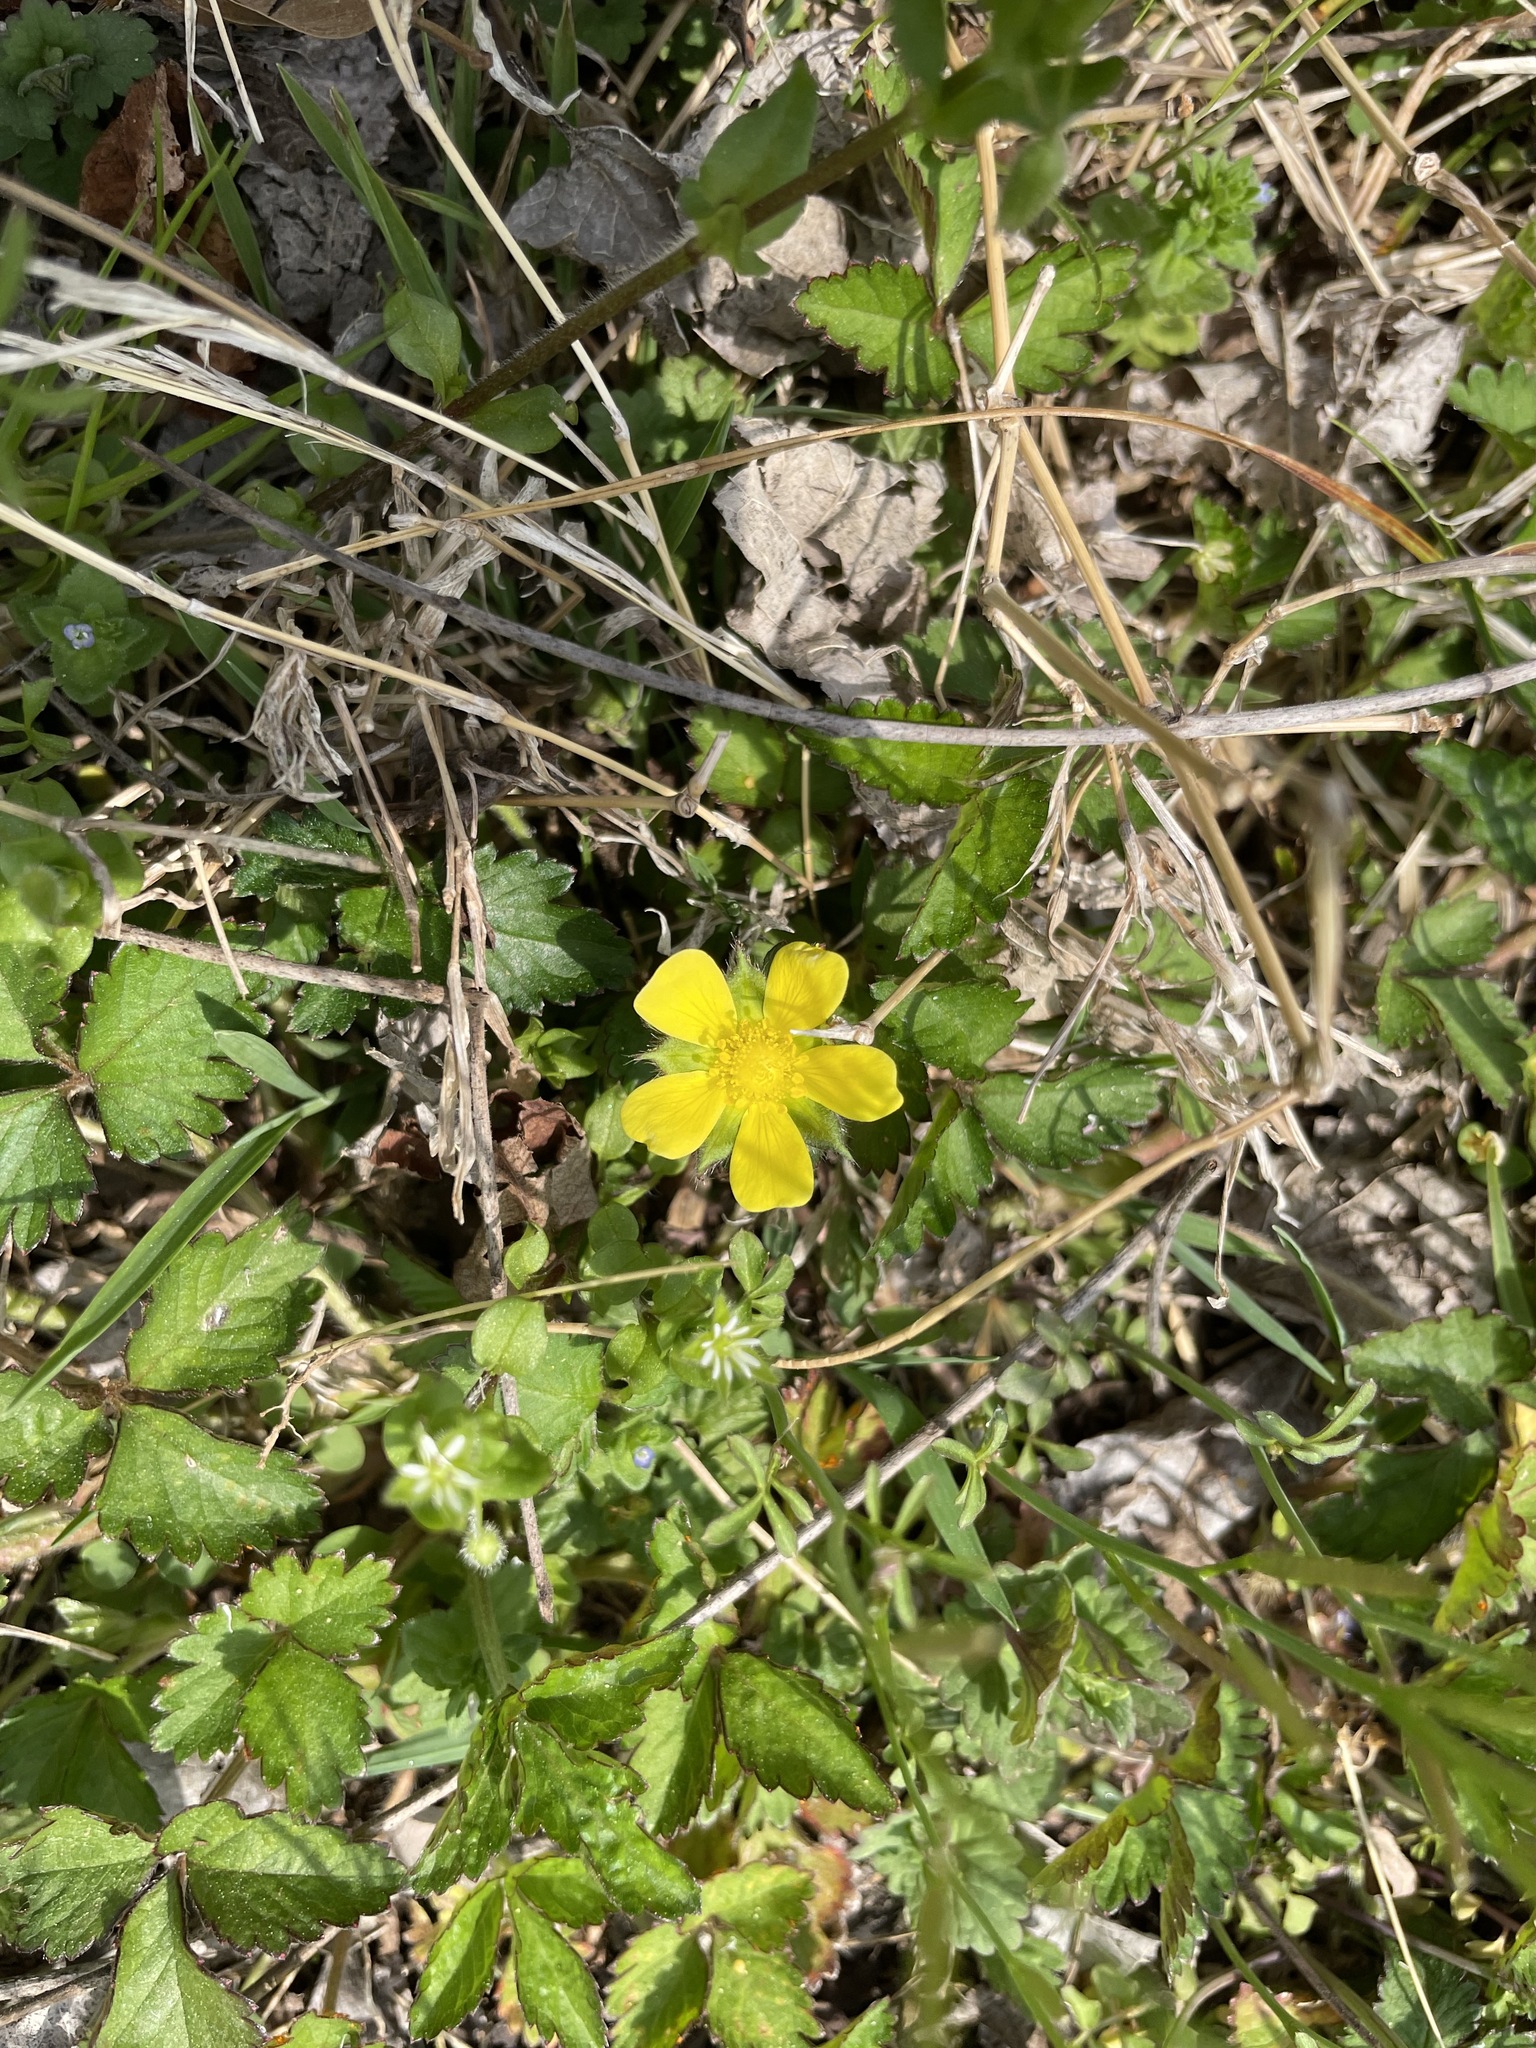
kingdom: Plantae
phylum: Tracheophyta
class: Magnoliopsida
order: Rosales
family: Rosaceae
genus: Potentilla
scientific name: Potentilla indica
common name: Yellow-flowered strawberry
